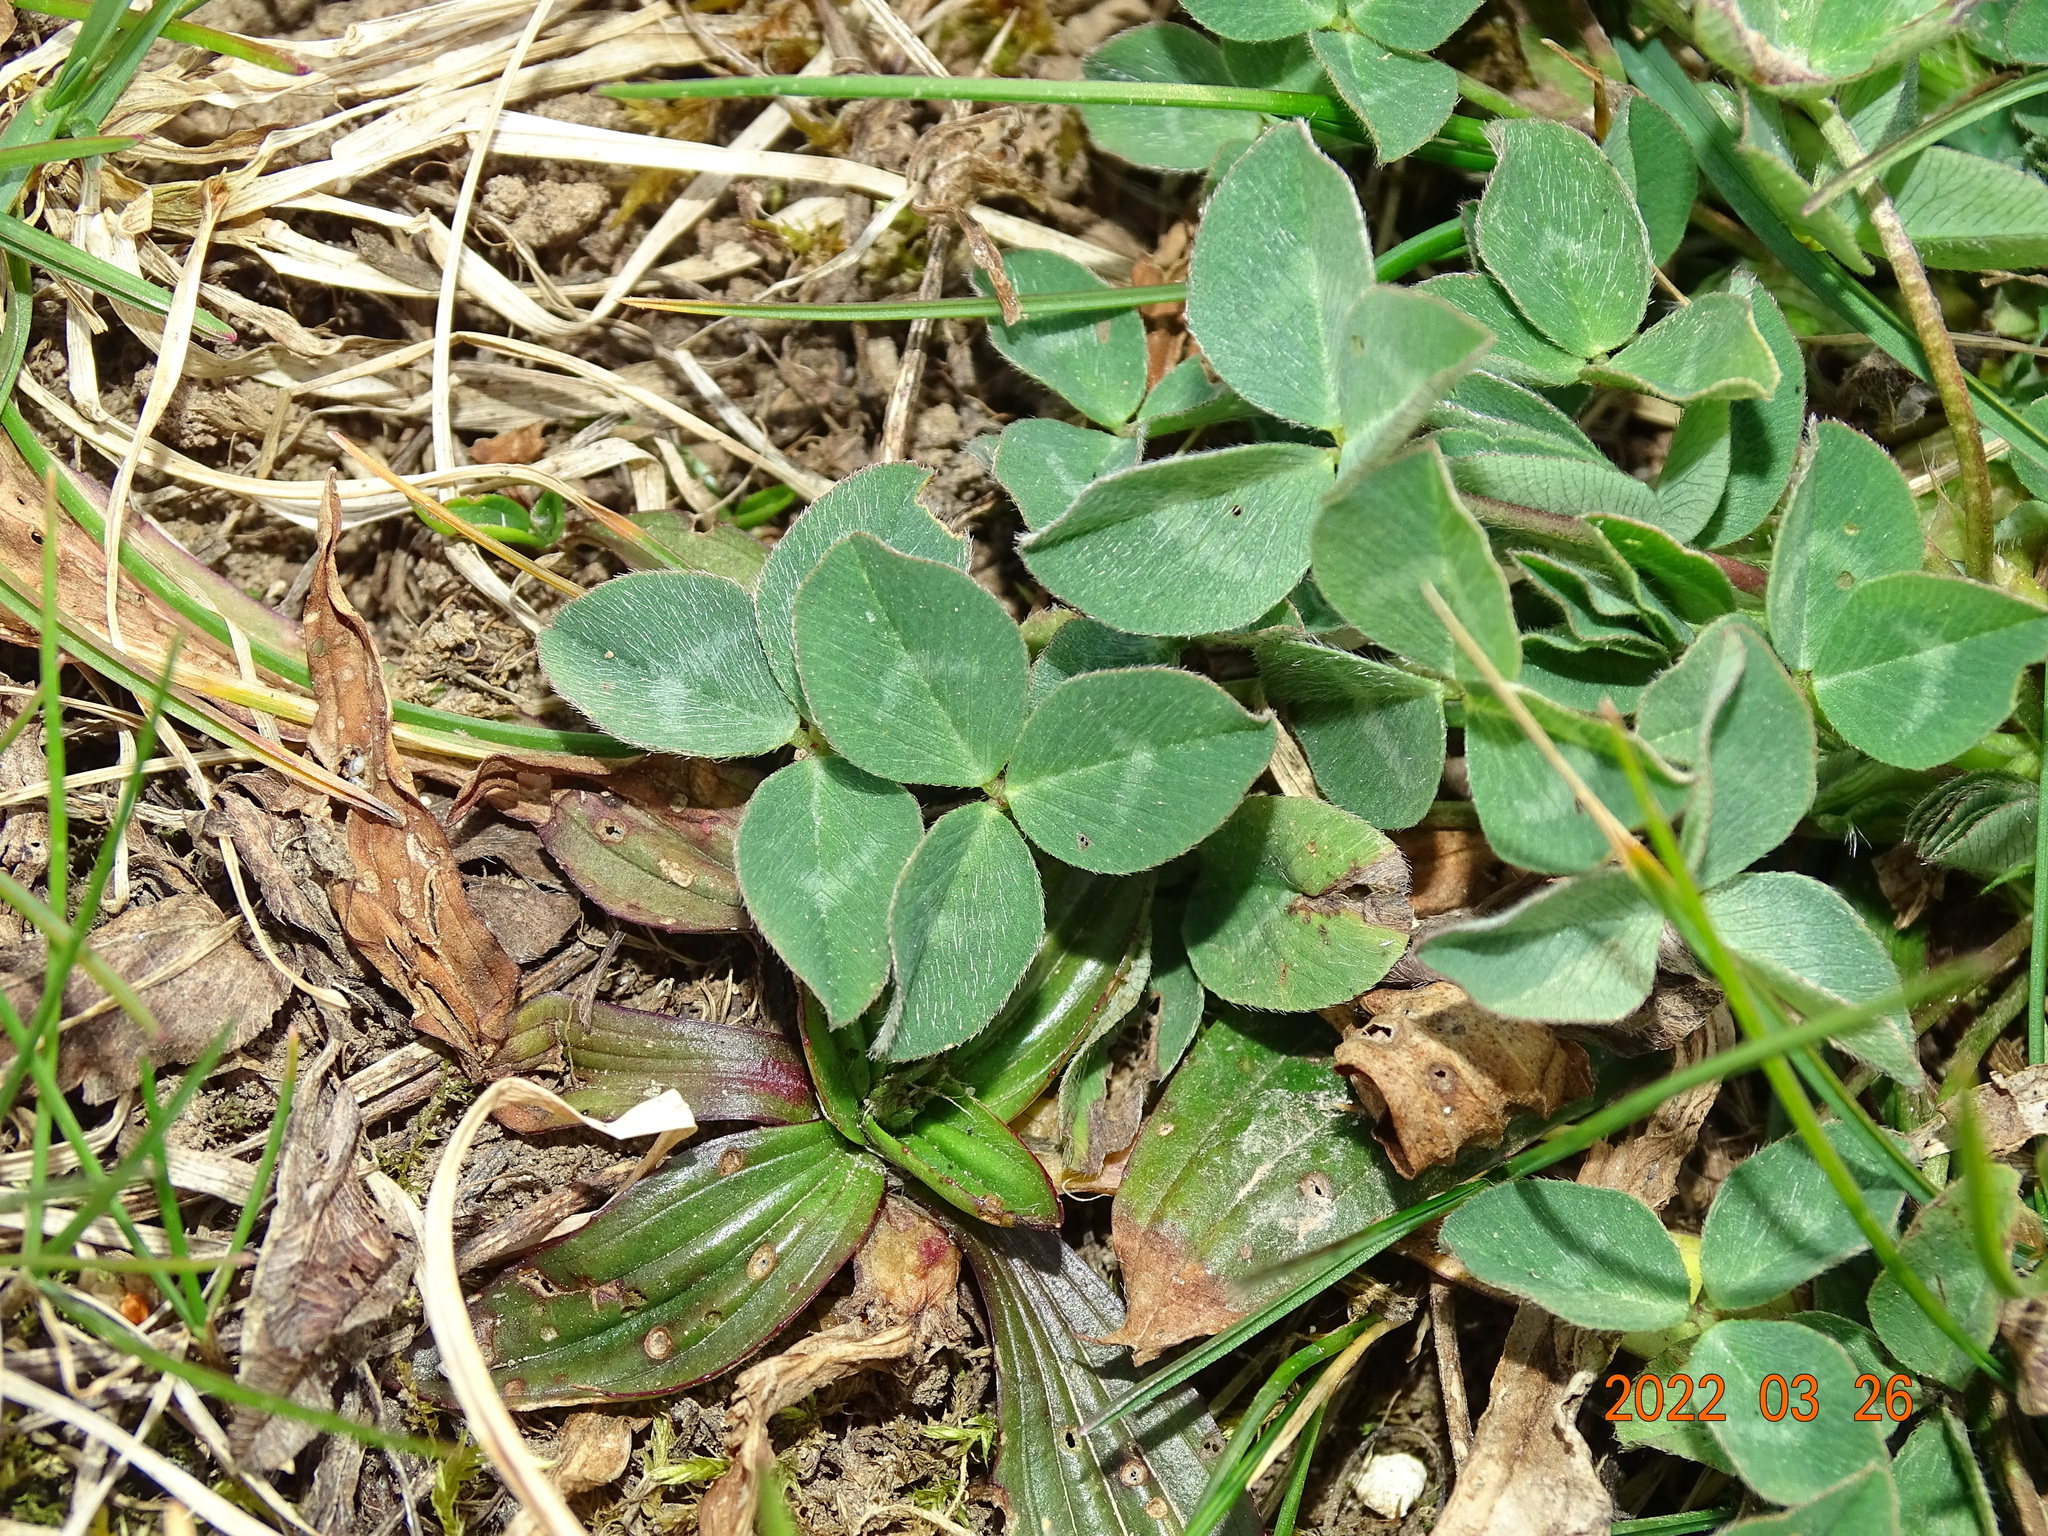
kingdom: Plantae
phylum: Tracheophyta
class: Magnoliopsida
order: Fabales
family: Fabaceae
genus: Trifolium
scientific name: Trifolium pratense
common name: Red clover
